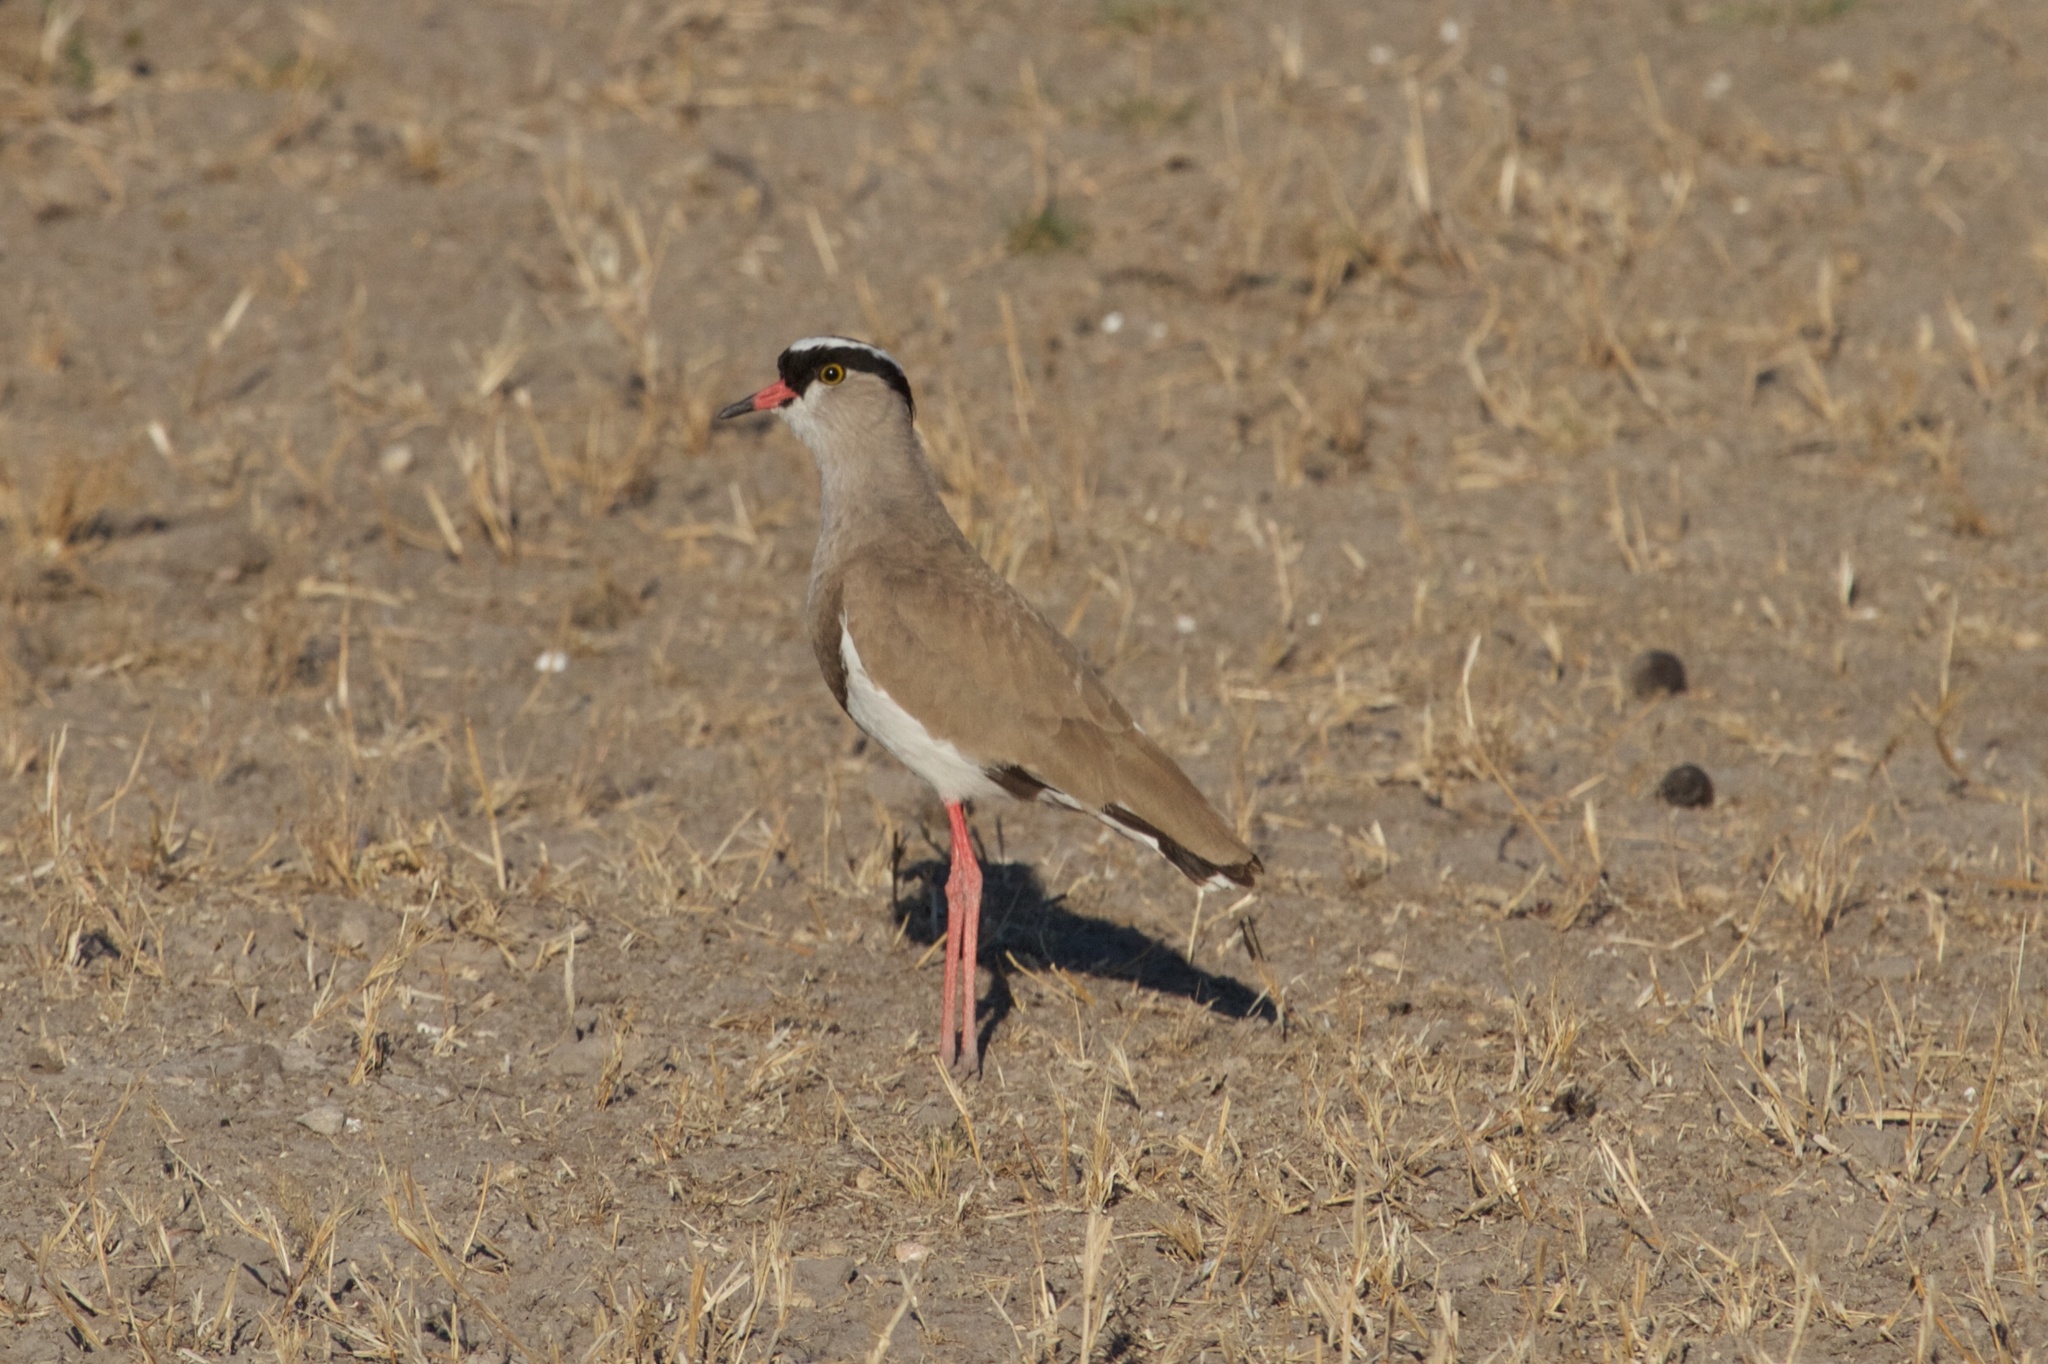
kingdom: Animalia
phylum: Chordata
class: Aves
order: Charadriiformes
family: Charadriidae
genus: Vanellus
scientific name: Vanellus coronatus
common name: Crowned lapwing
